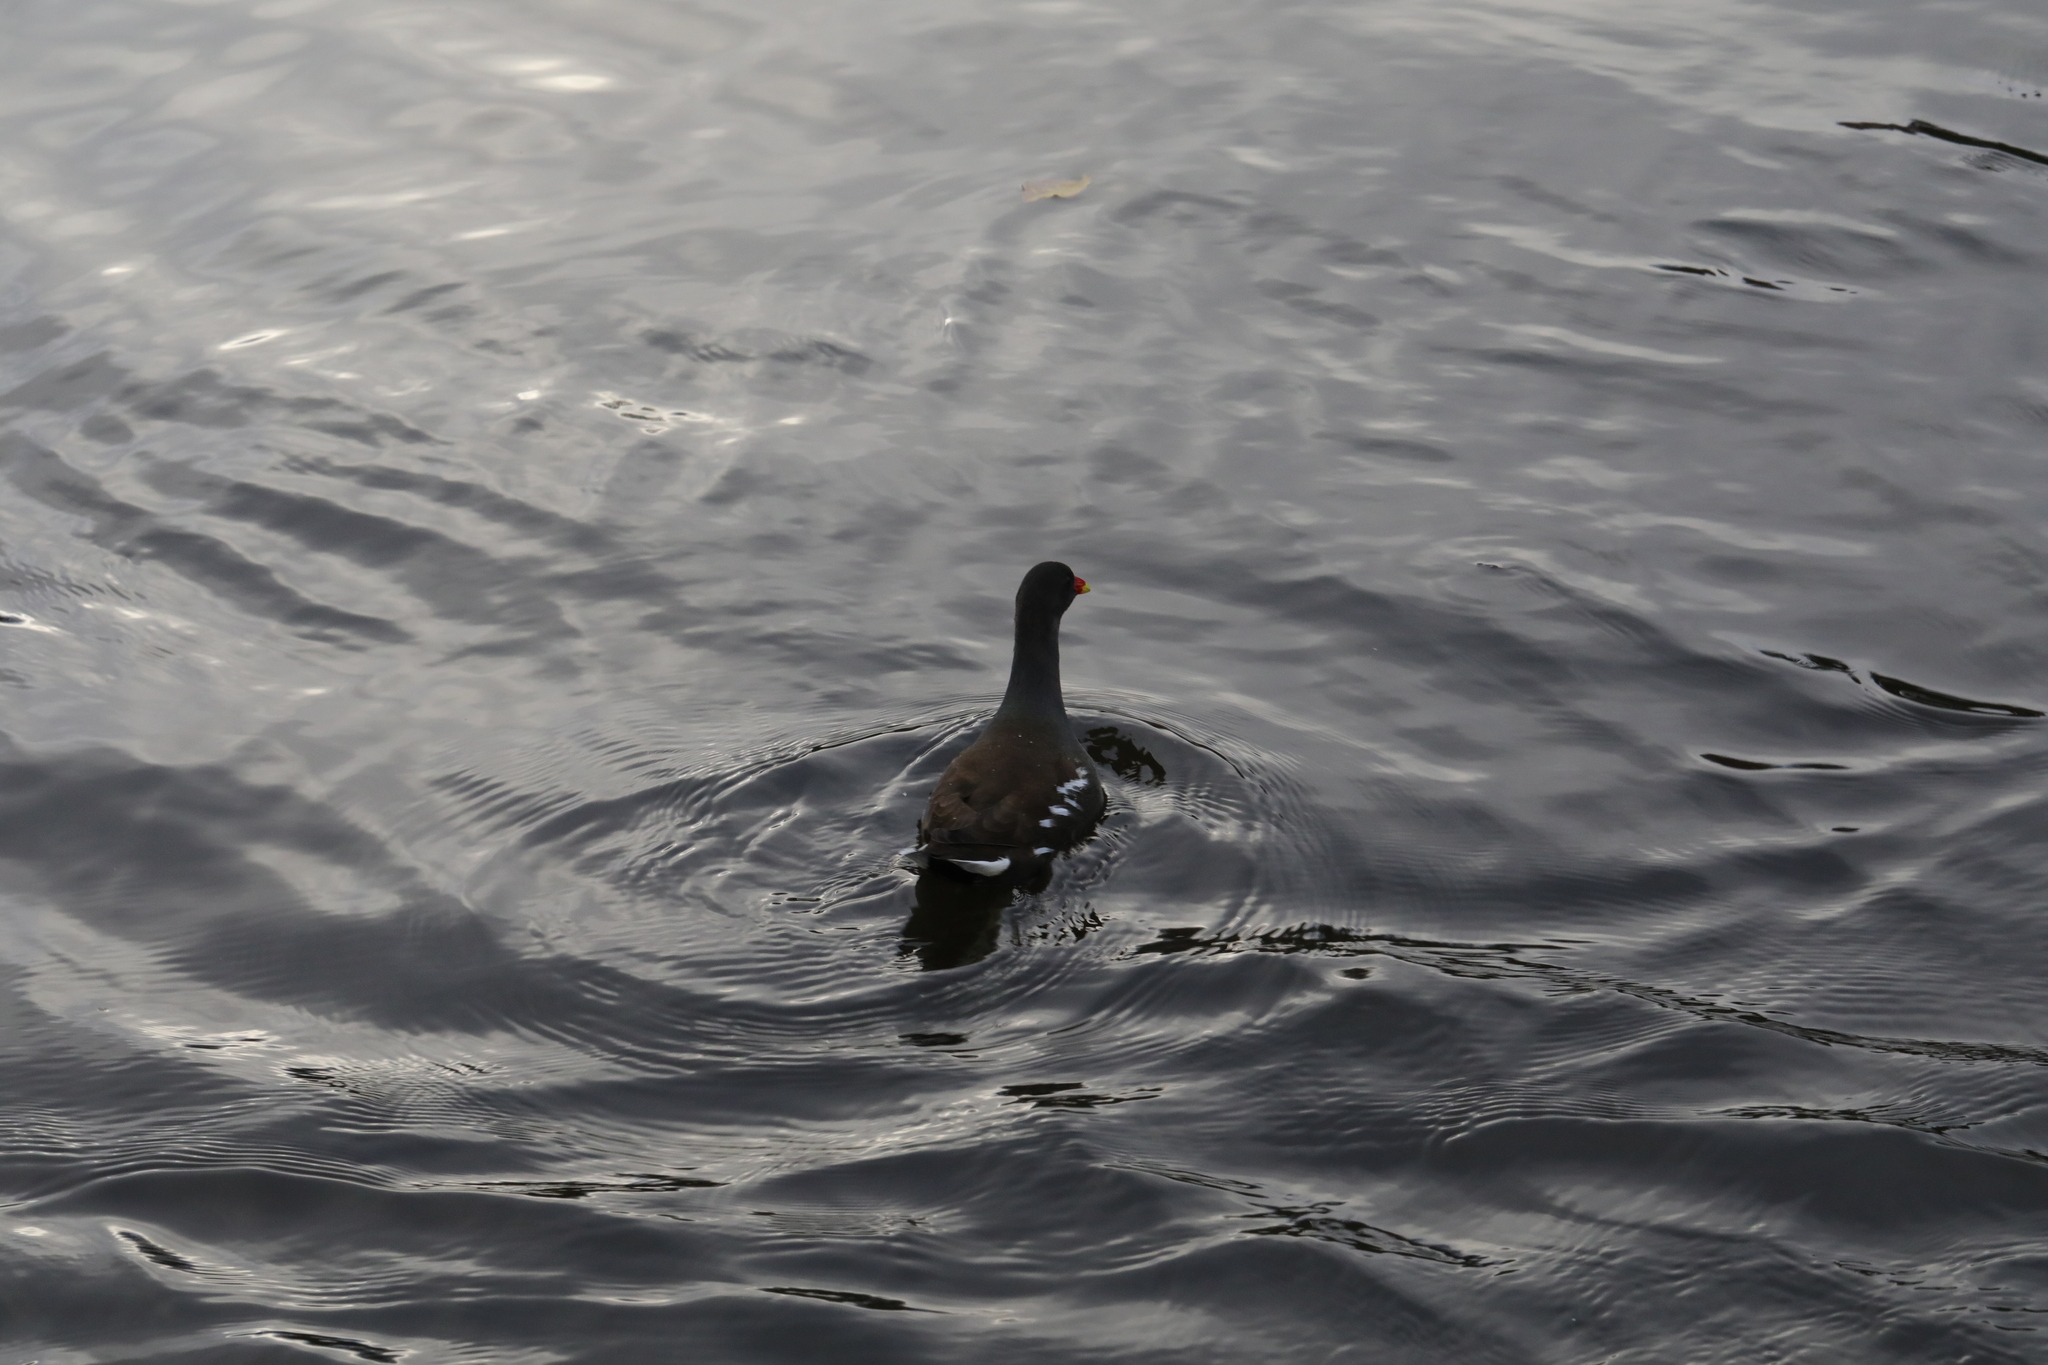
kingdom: Animalia
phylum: Chordata
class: Aves
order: Gruiformes
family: Rallidae
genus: Gallinula
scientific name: Gallinula chloropus
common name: Common moorhen
